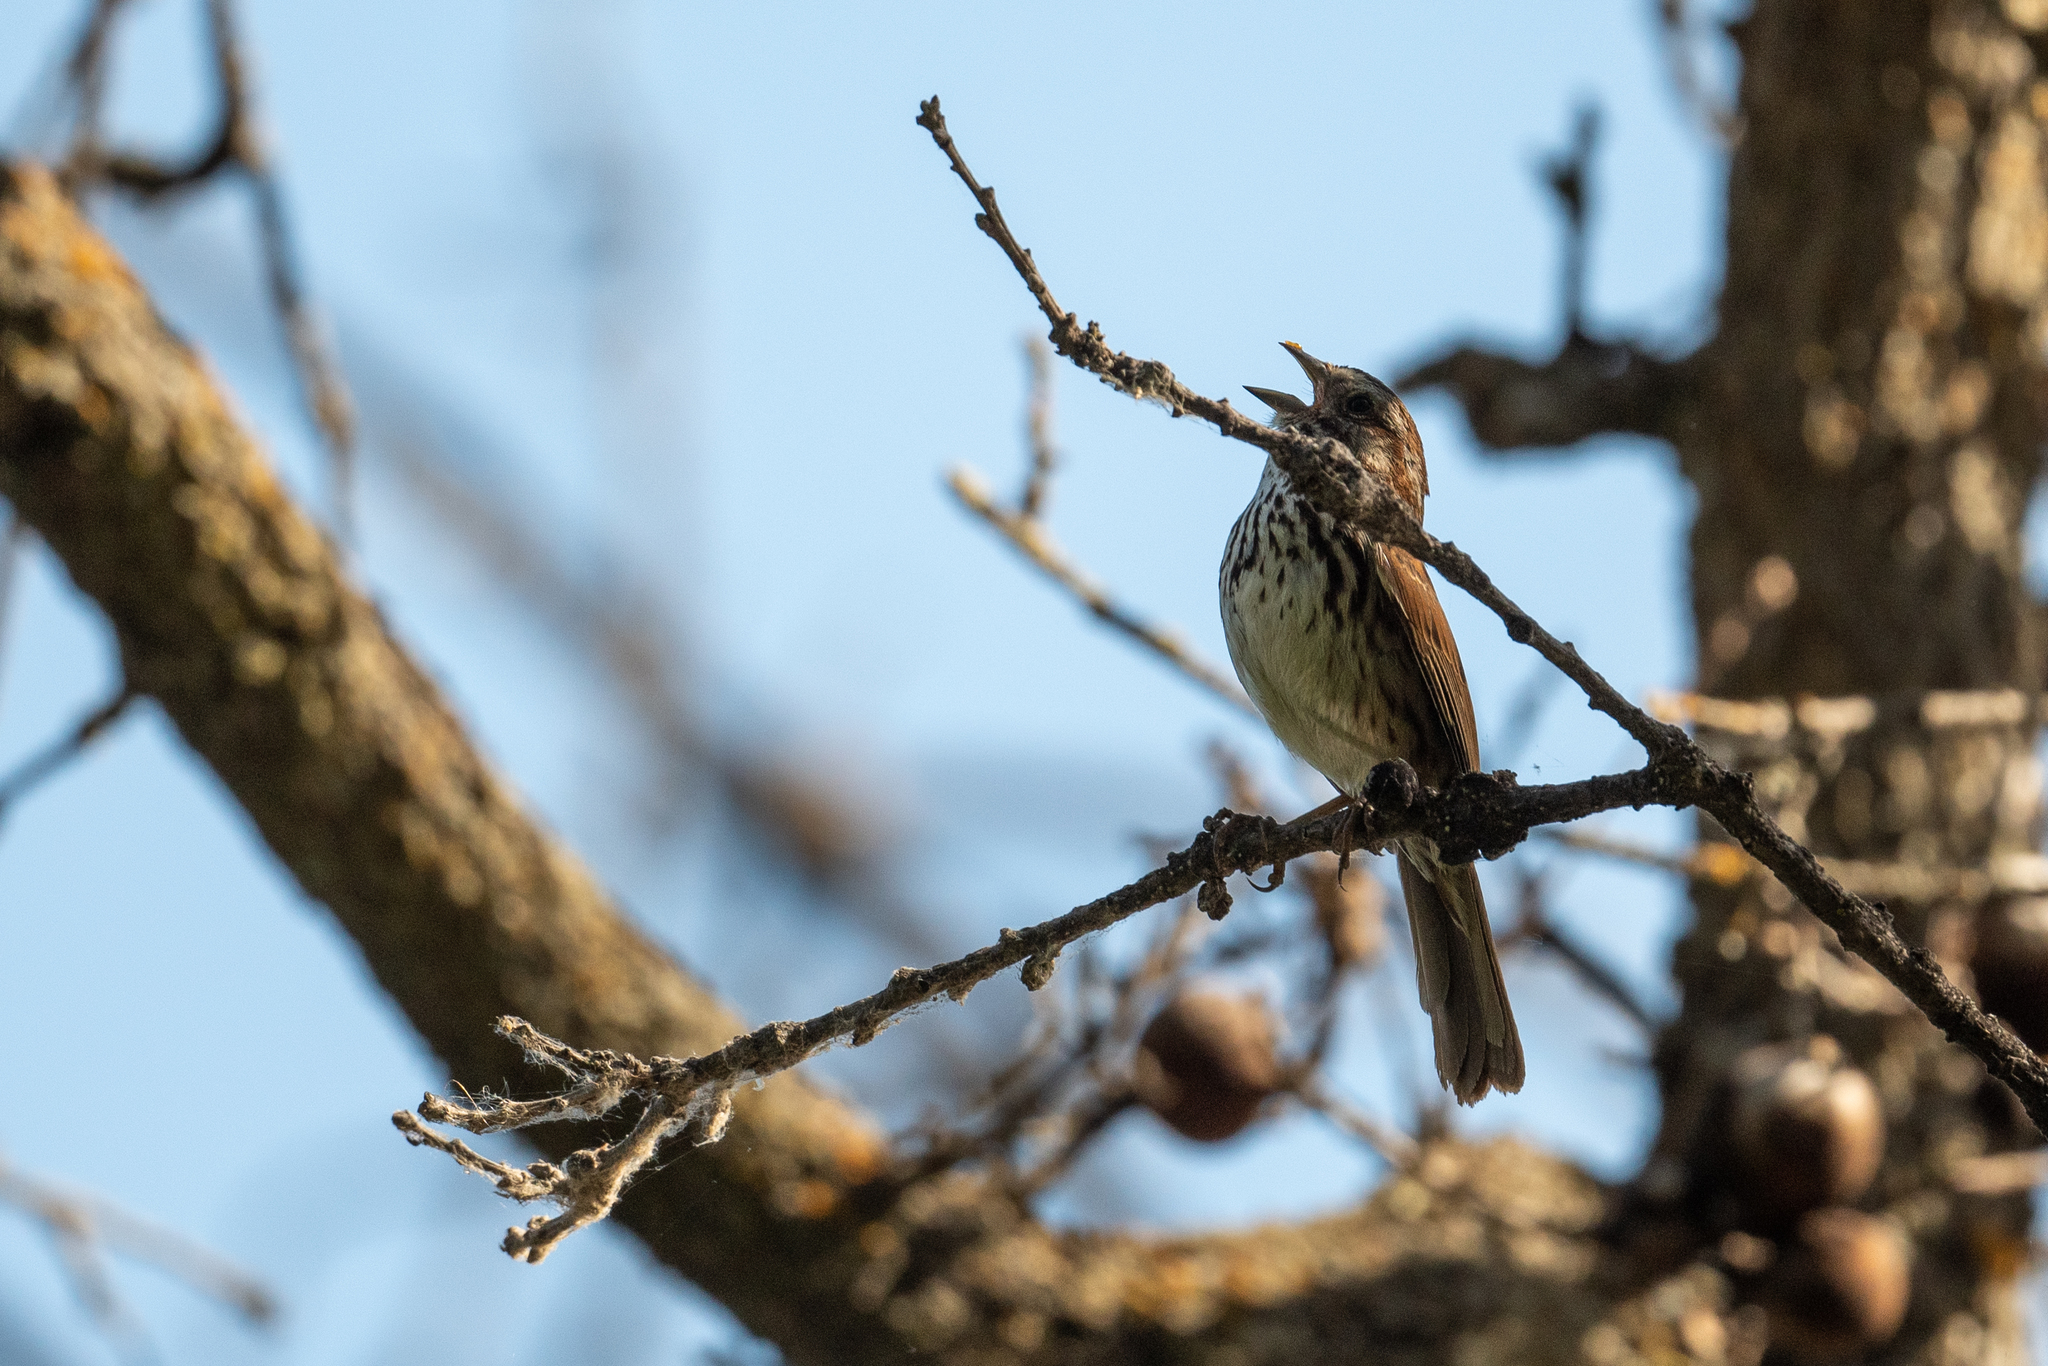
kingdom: Animalia
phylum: Chordata
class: Aves
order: Passeriformes
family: Passerellidae
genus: Melospiza
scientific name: Melospiza melodia
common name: Song sparrow
